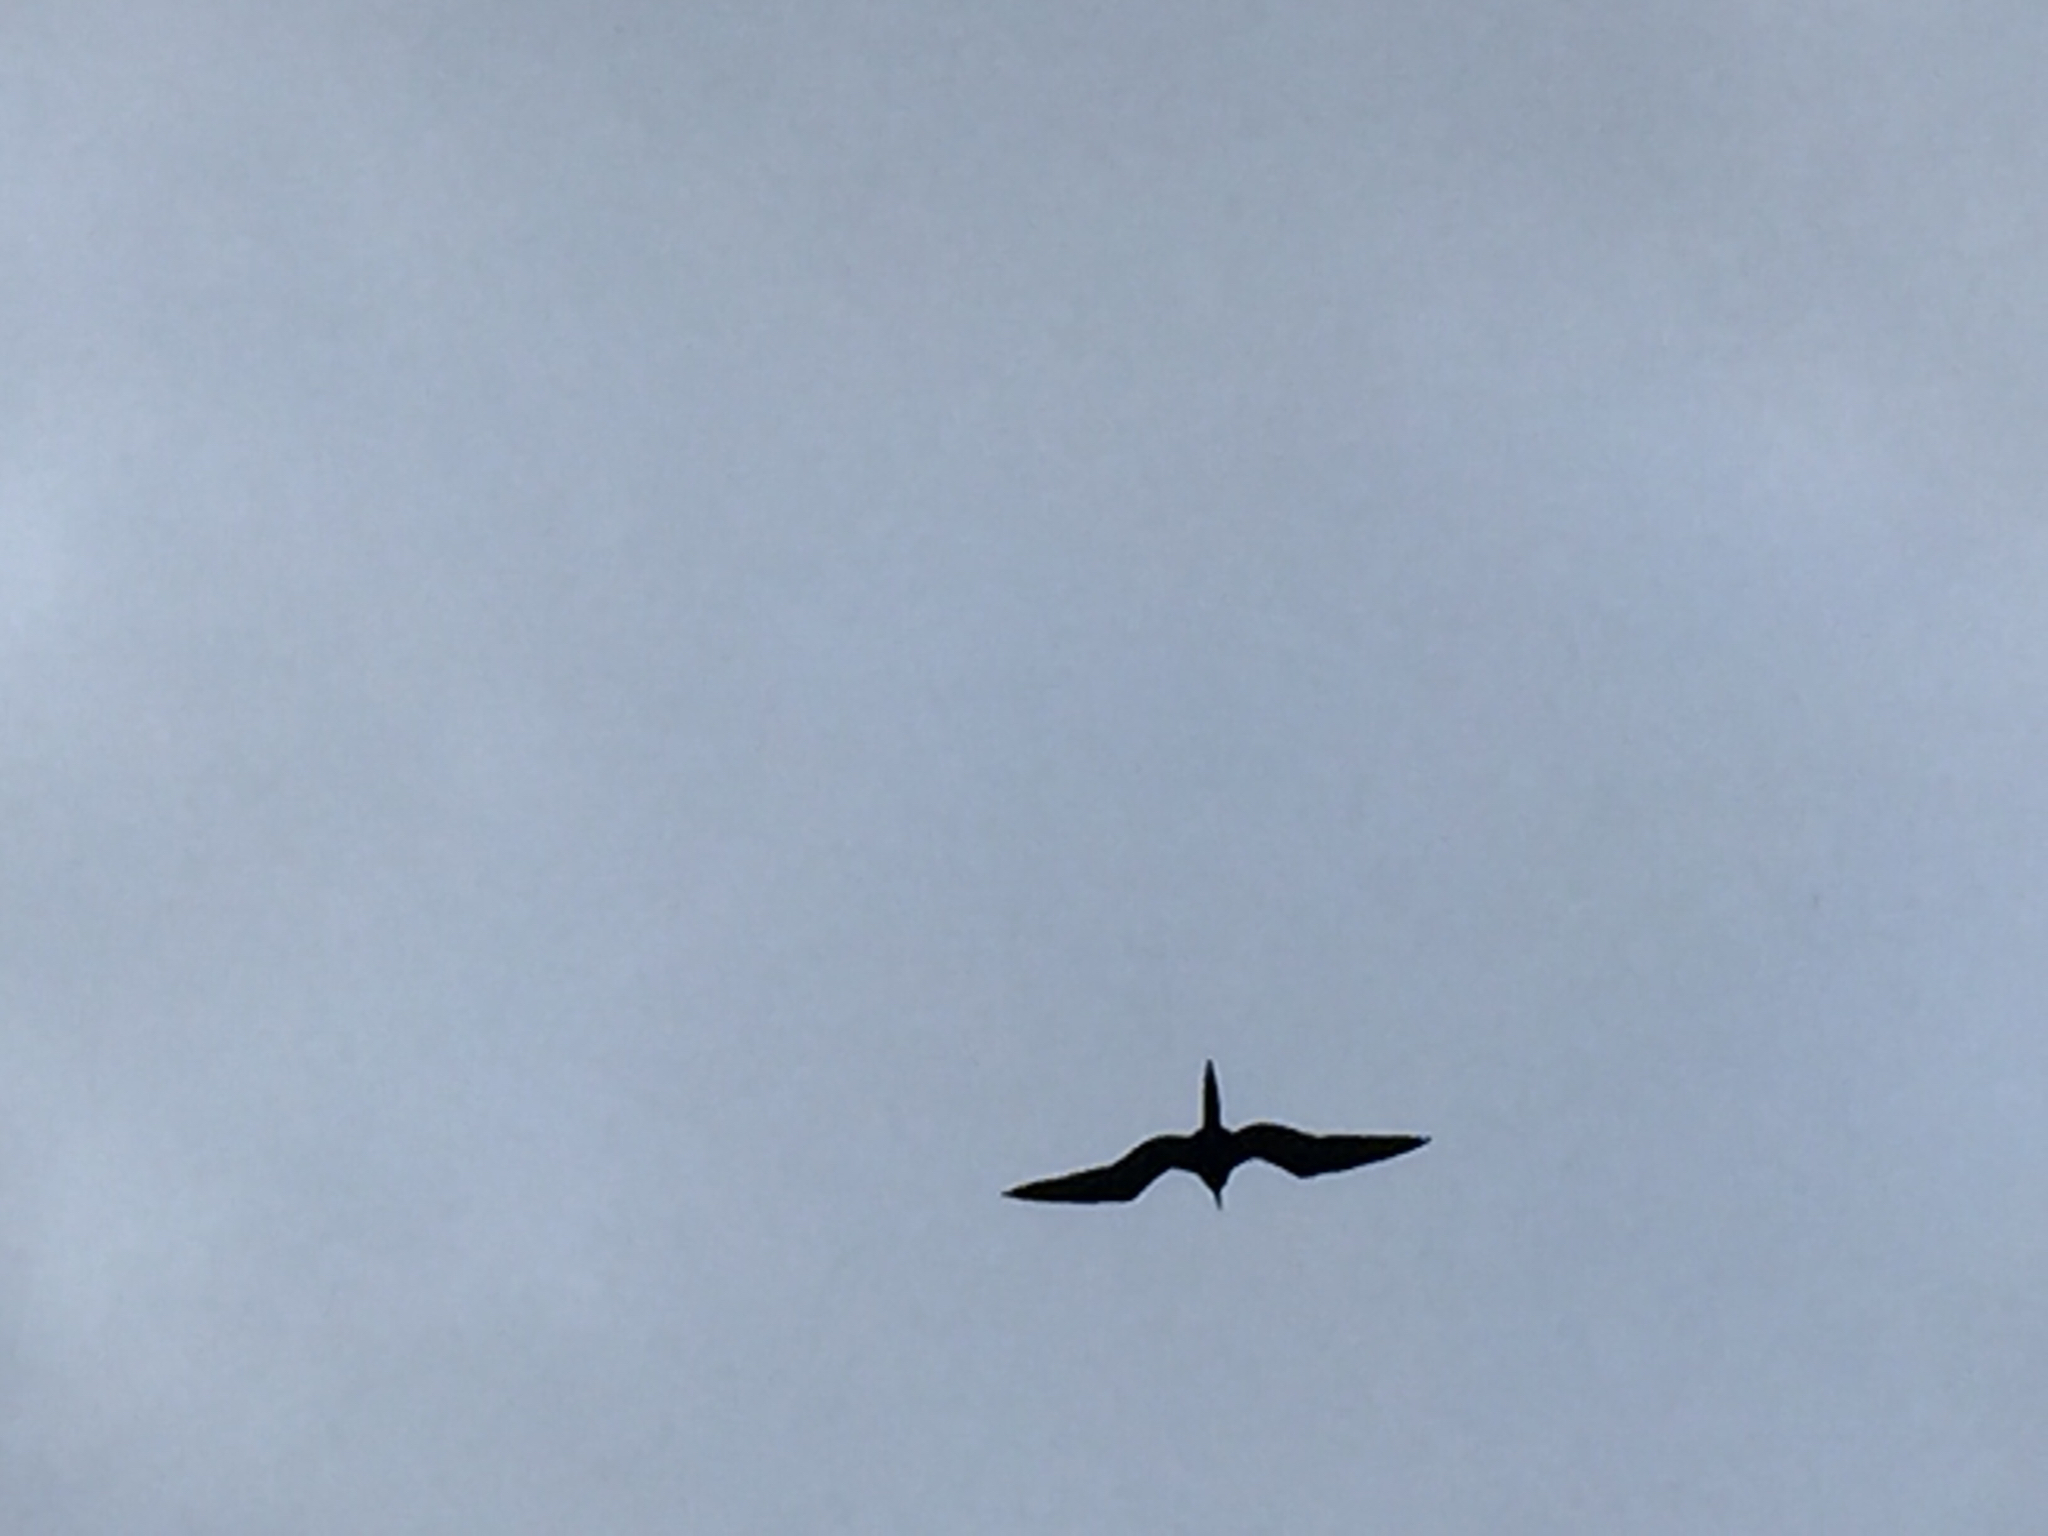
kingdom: Animalia
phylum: Chordata
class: Aves
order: Suliformes
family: Fregatidae
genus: Fregata
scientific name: Fregata magnificens
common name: Magnificent frigatebird
